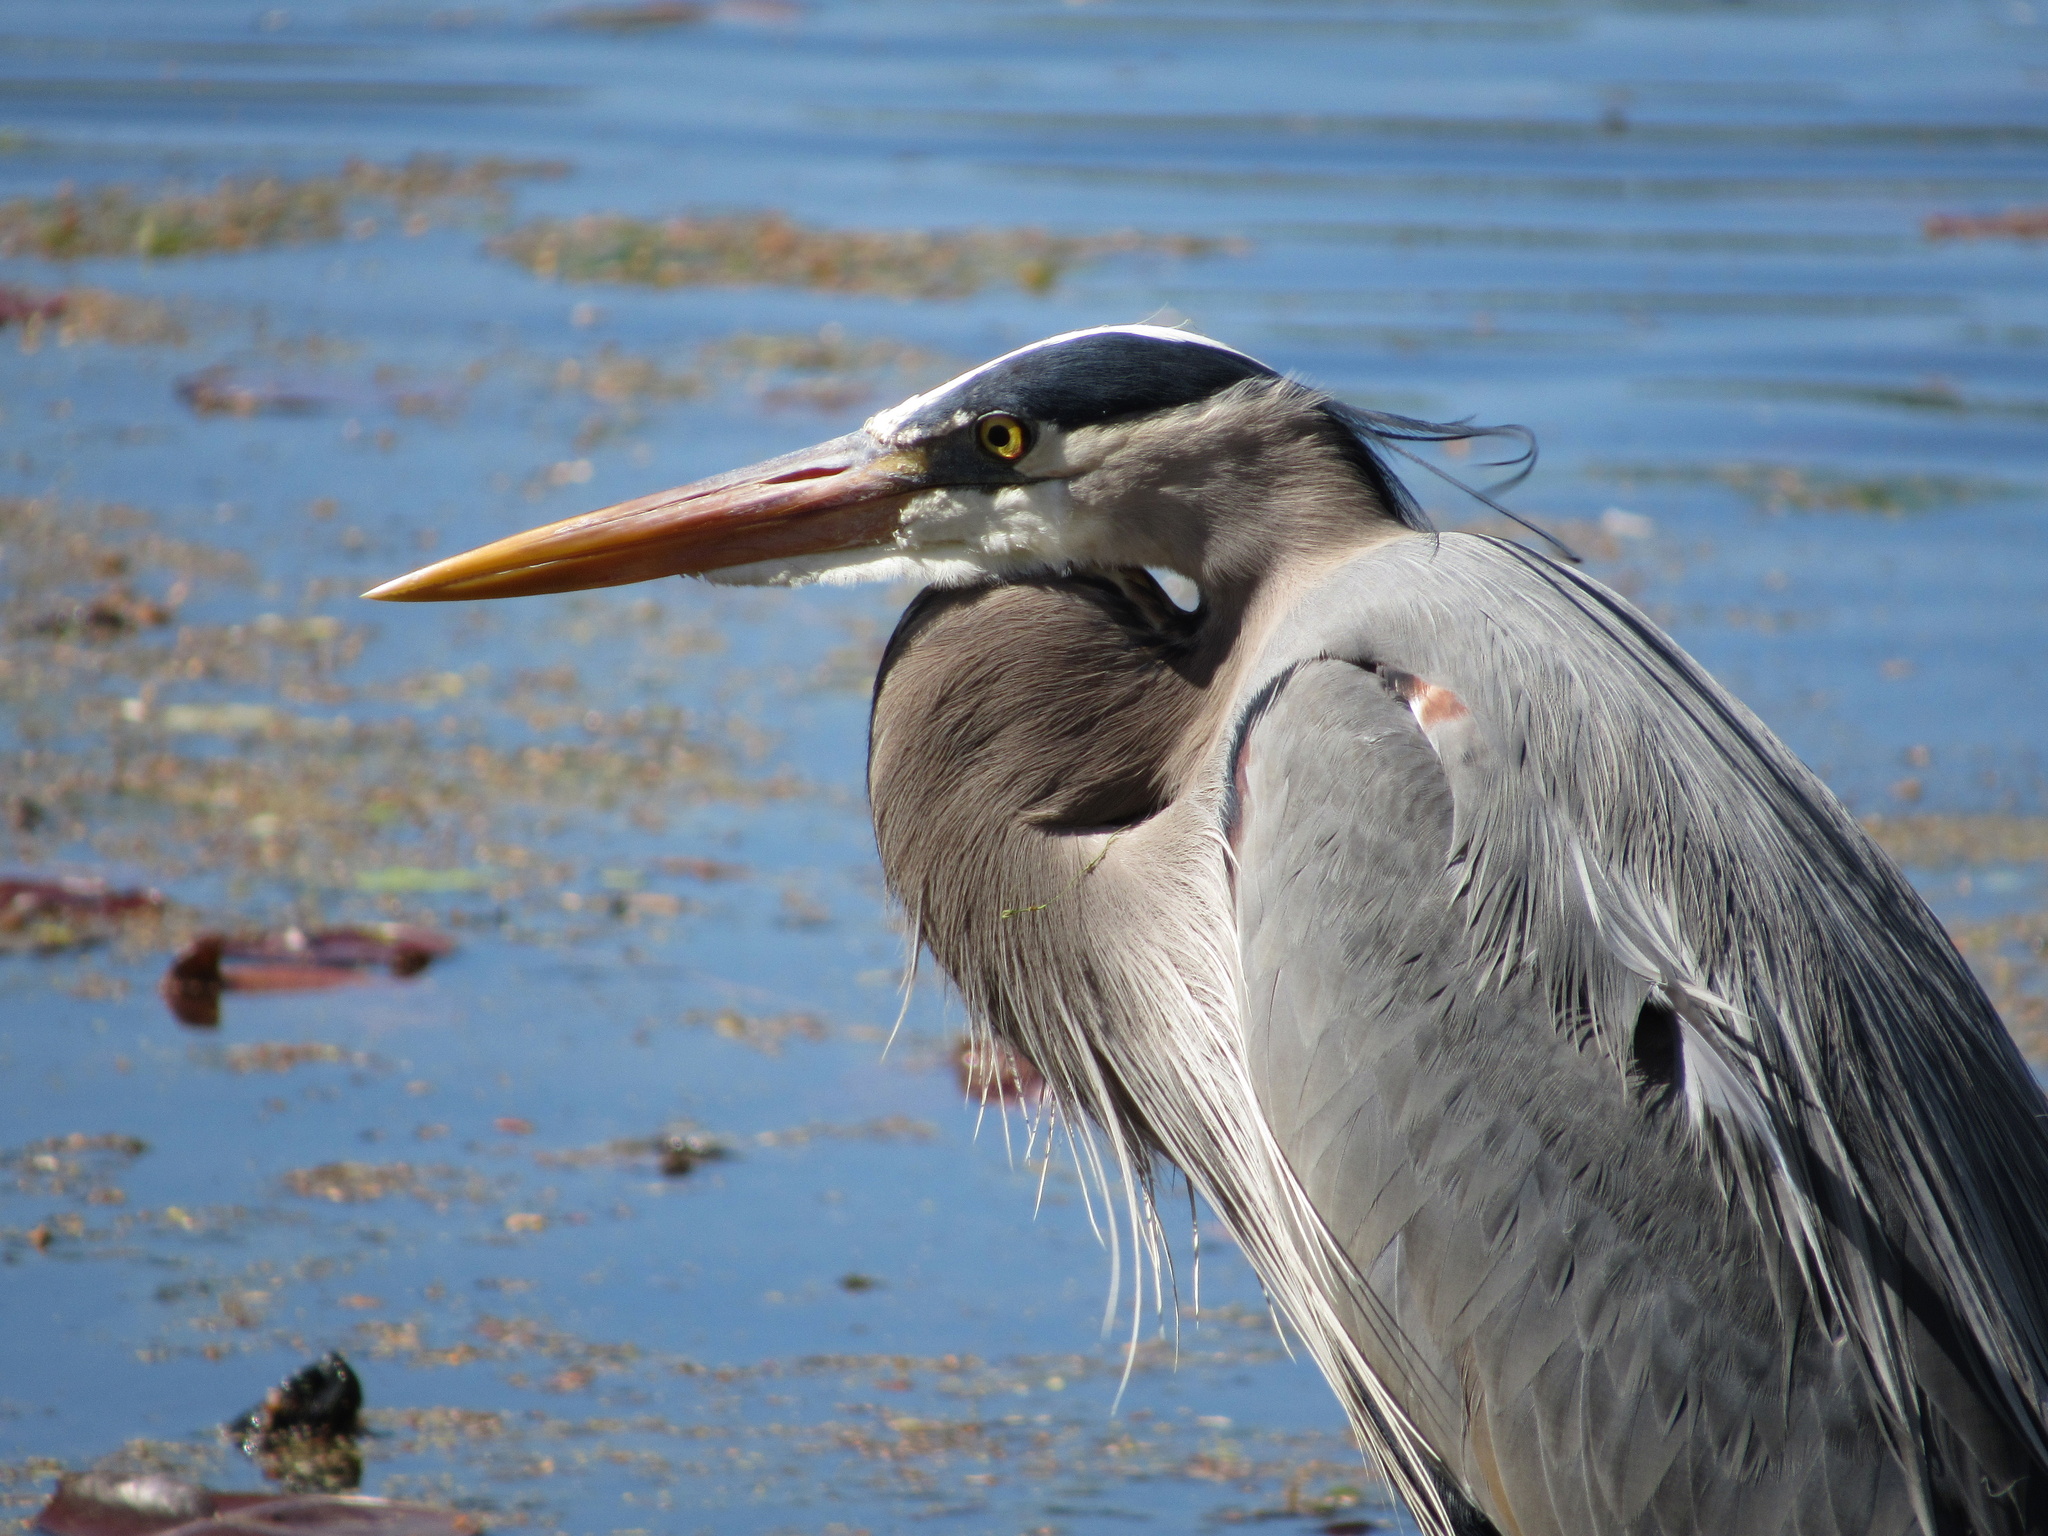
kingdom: Animalia
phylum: Chordata
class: Aves
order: Pelecaniformes
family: Ardeidae
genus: Ardea
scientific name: Ardea herodias
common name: Great blue heron
